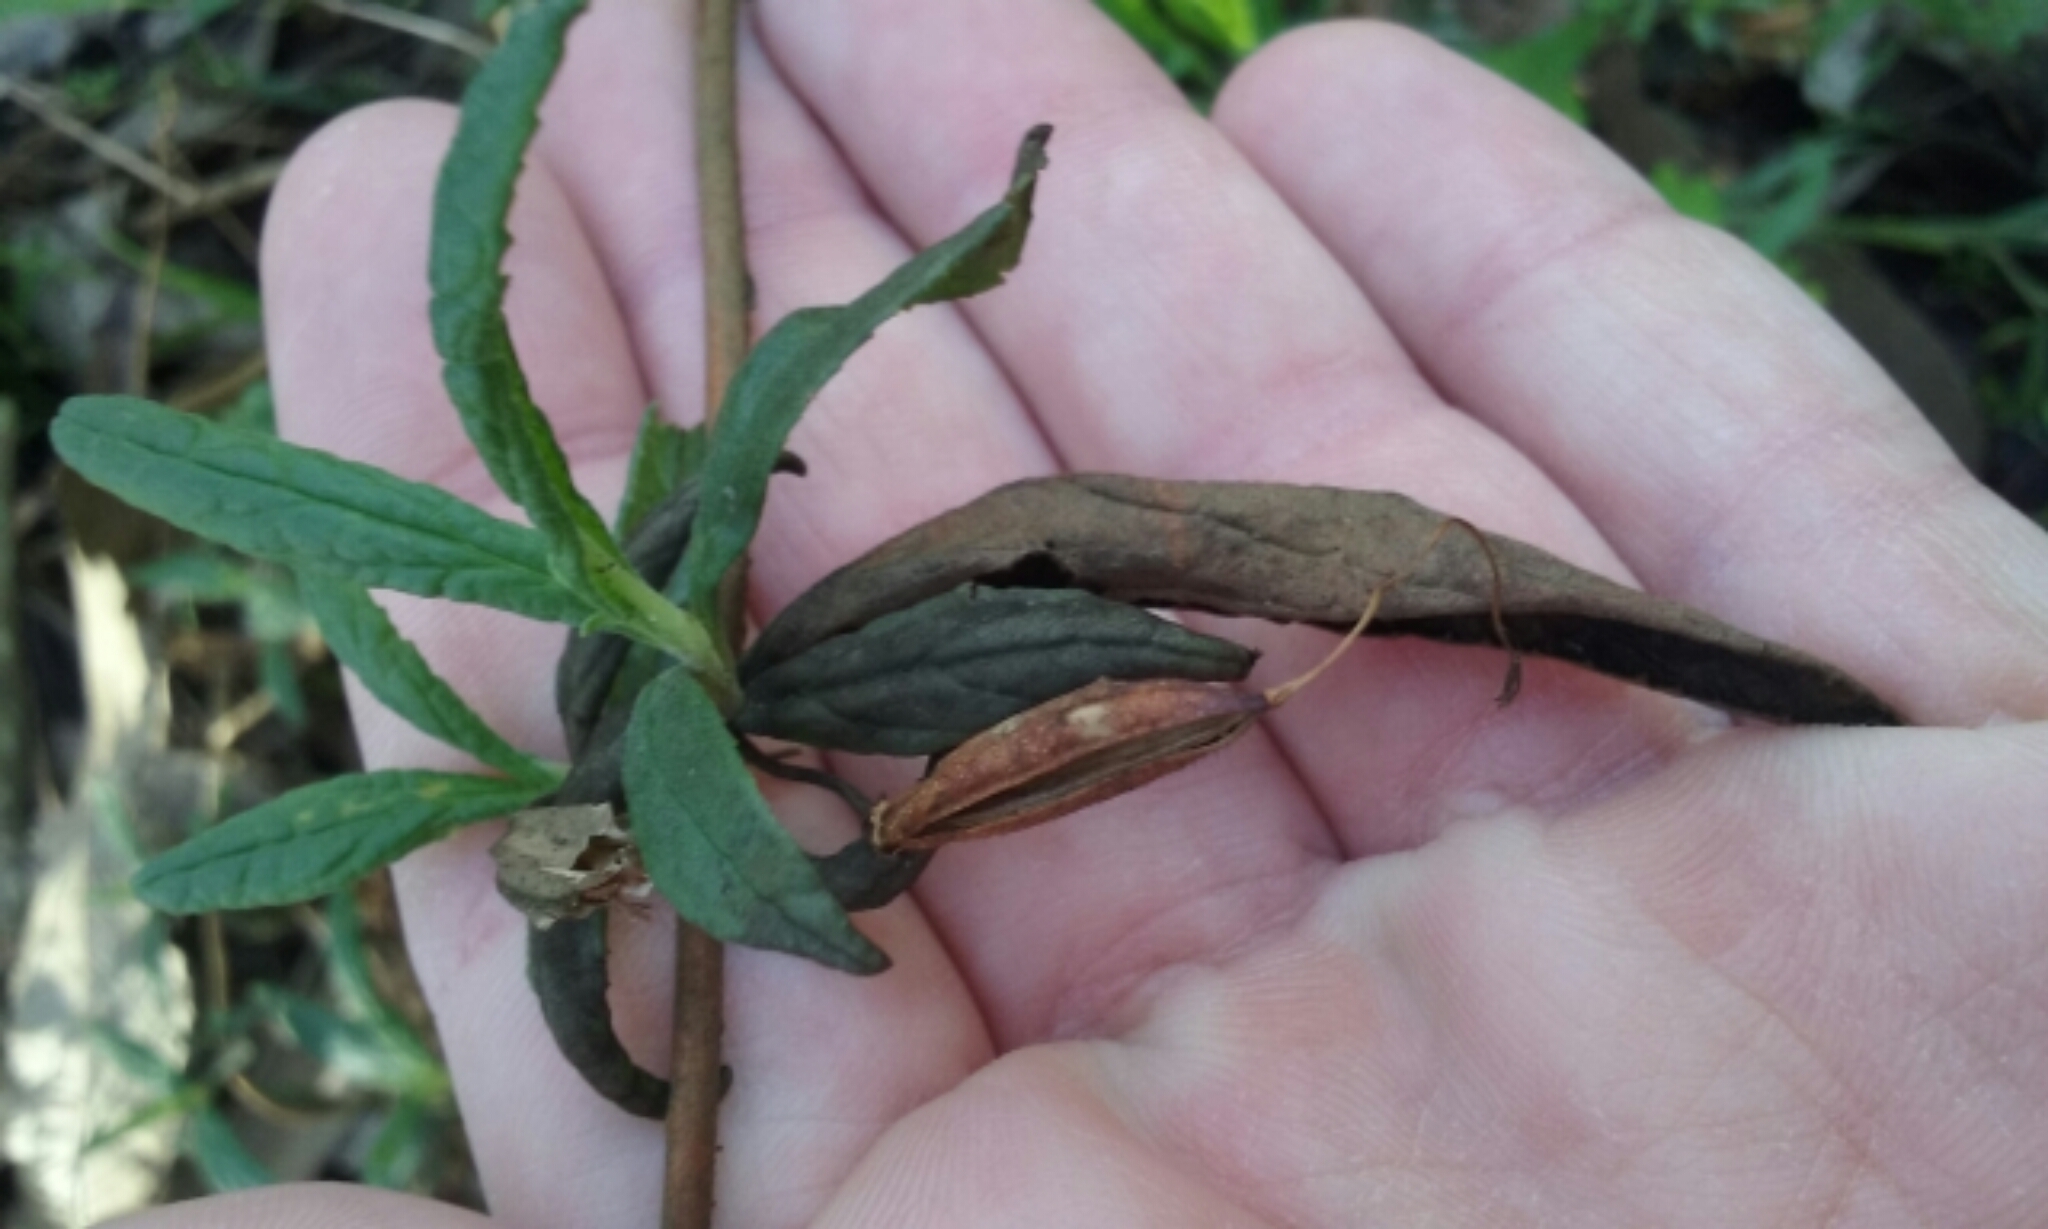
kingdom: Plantae
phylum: Tracheophyta
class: Magnoliopsida
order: Lamiales
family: Phrymaceae
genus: Diplacus
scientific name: Diplacus aurantiacus
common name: Bush monkey-flower
